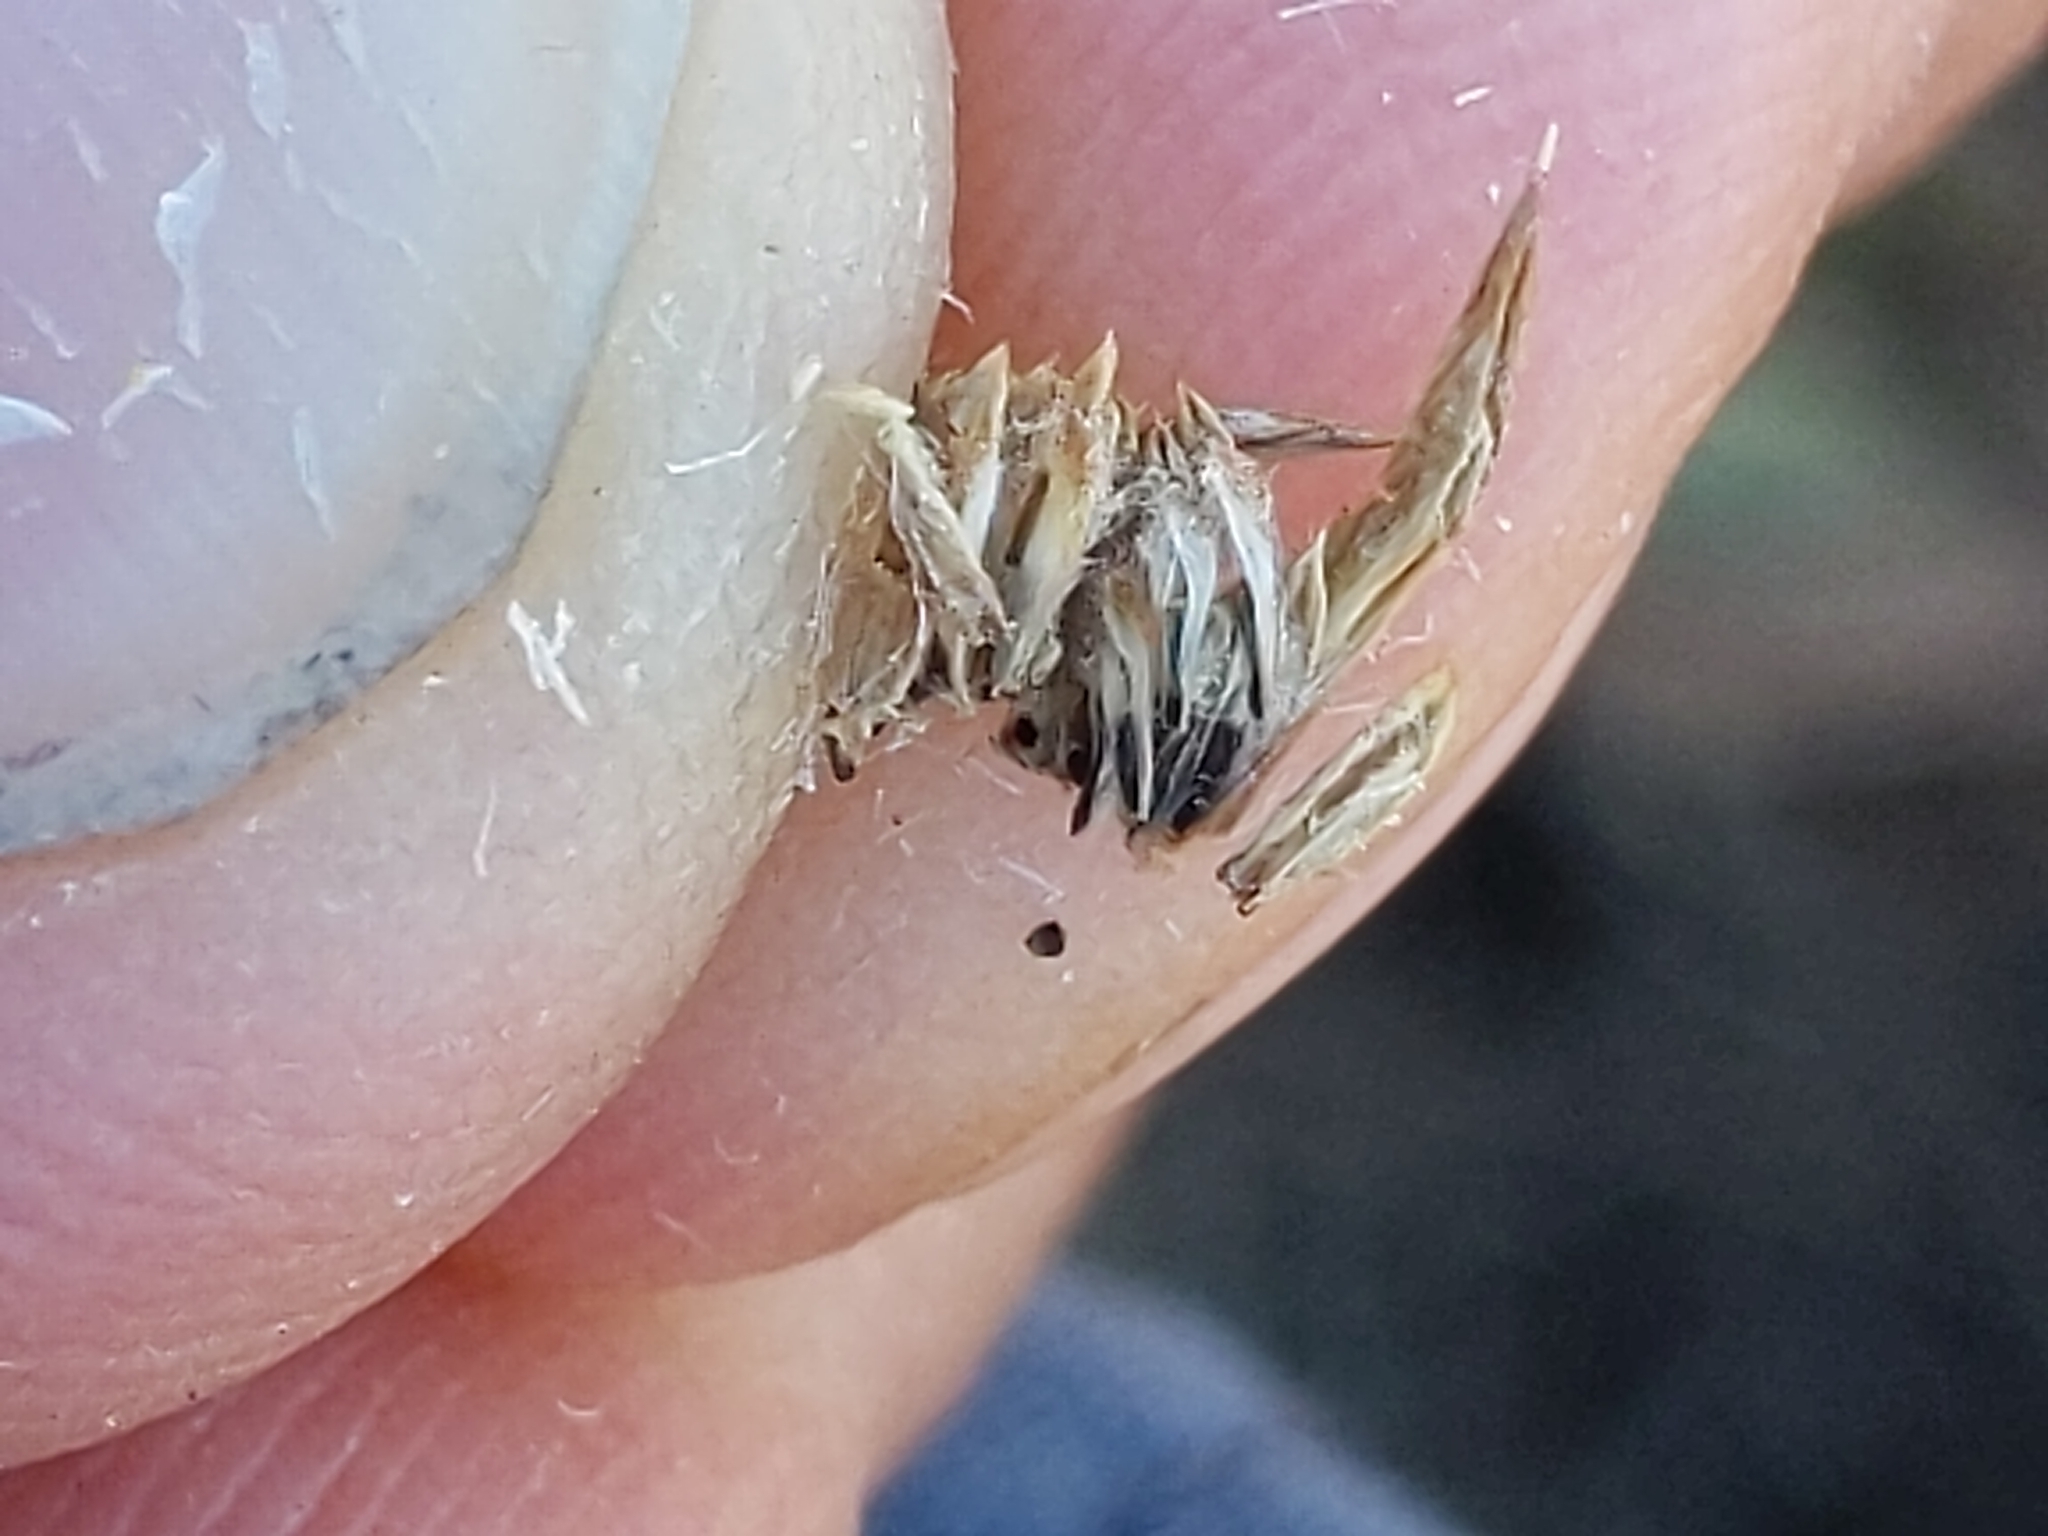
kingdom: Plantae
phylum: Tracheophyta
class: Magnoliopsida
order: Asterales
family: Asteraceae
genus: Centromadia
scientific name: Centromadia pungens
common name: Common spikeweed
